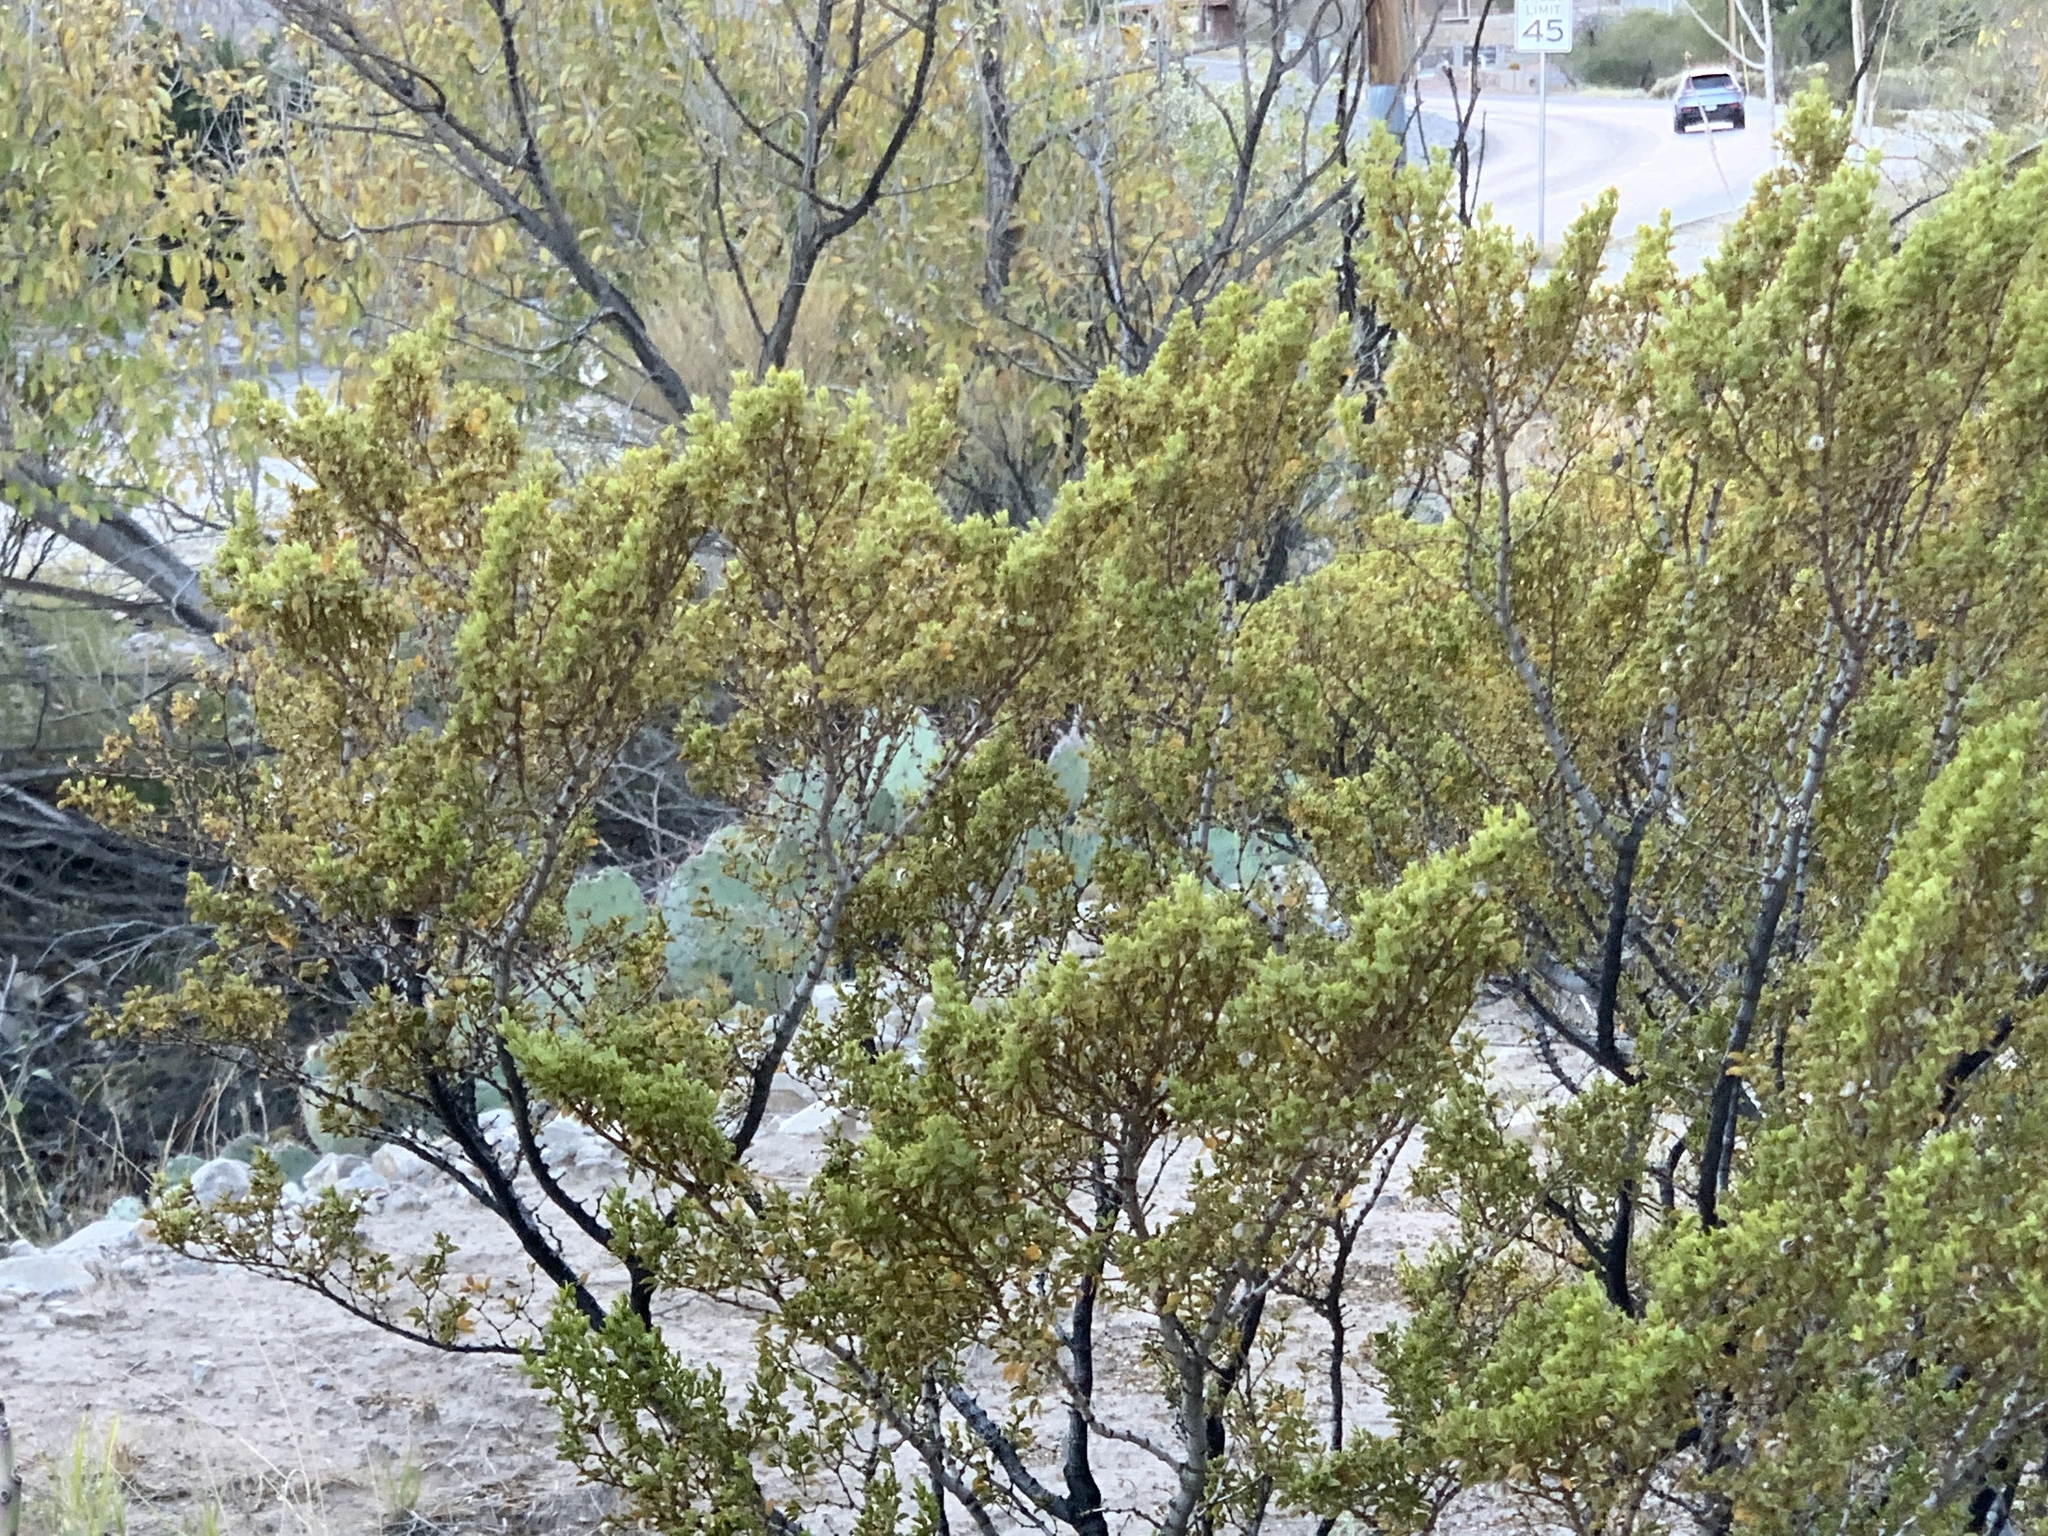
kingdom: Plantae
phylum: Tracheophyta
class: Magnoliopsida
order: Zygophyllales
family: Zygophyllaceae
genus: Larrea
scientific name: Larrea tridentata
